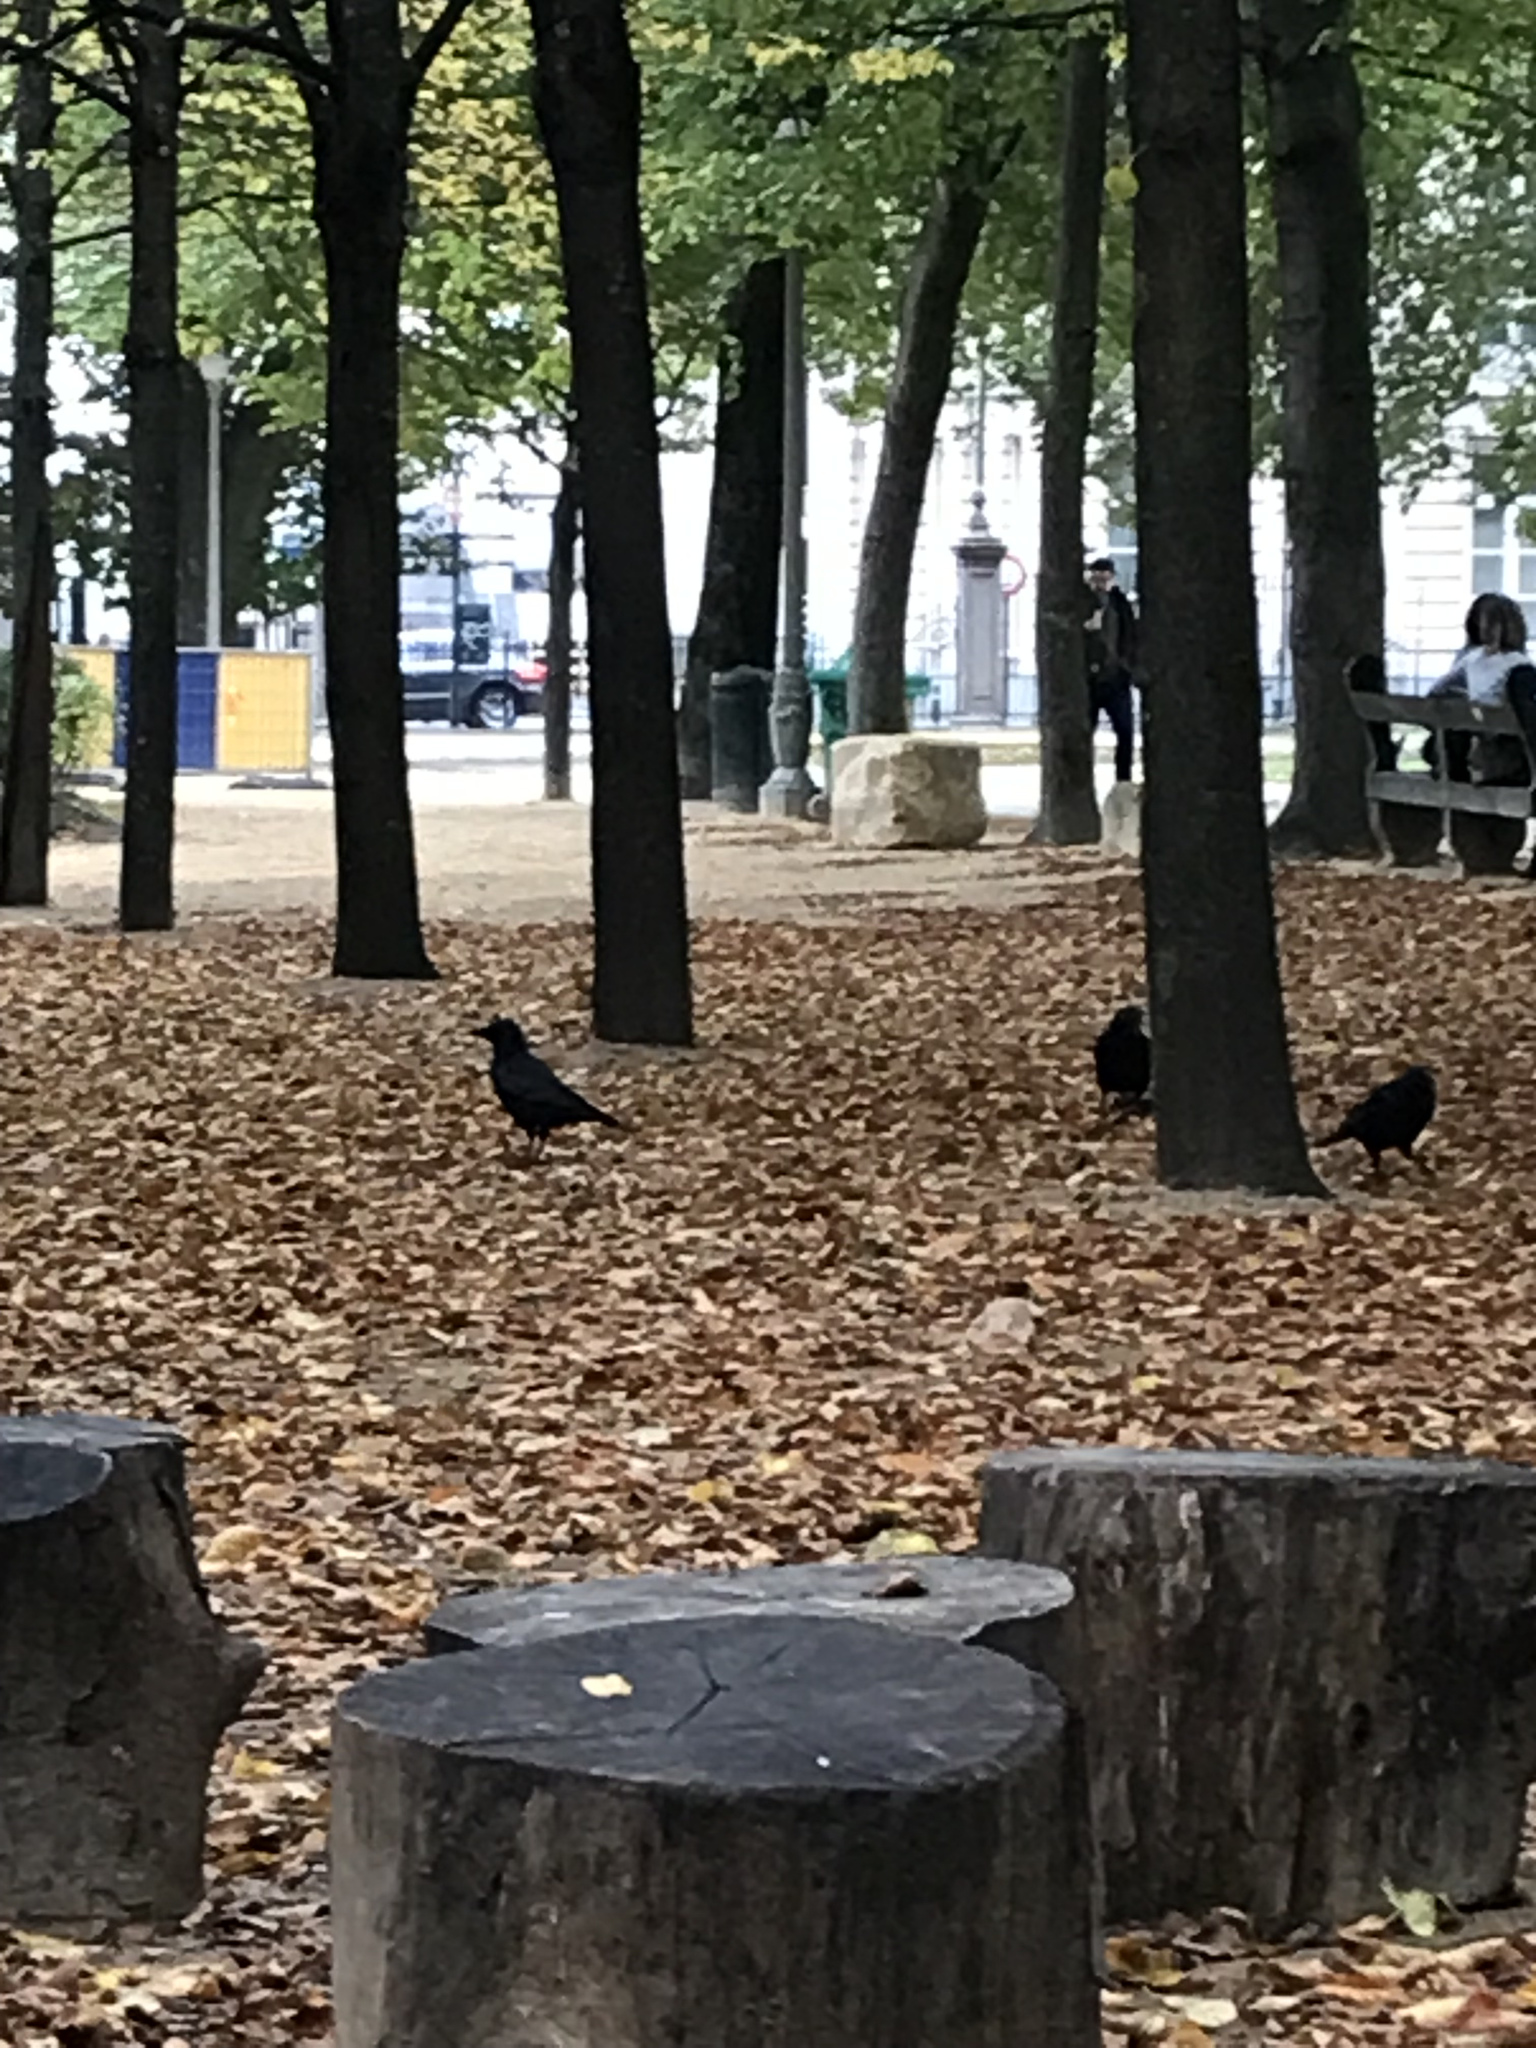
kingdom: Animalia
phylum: Chordata
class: Aves
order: Passeriformes
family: Corvidae
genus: Corvus
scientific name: Corvus corone
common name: Carrion crow
